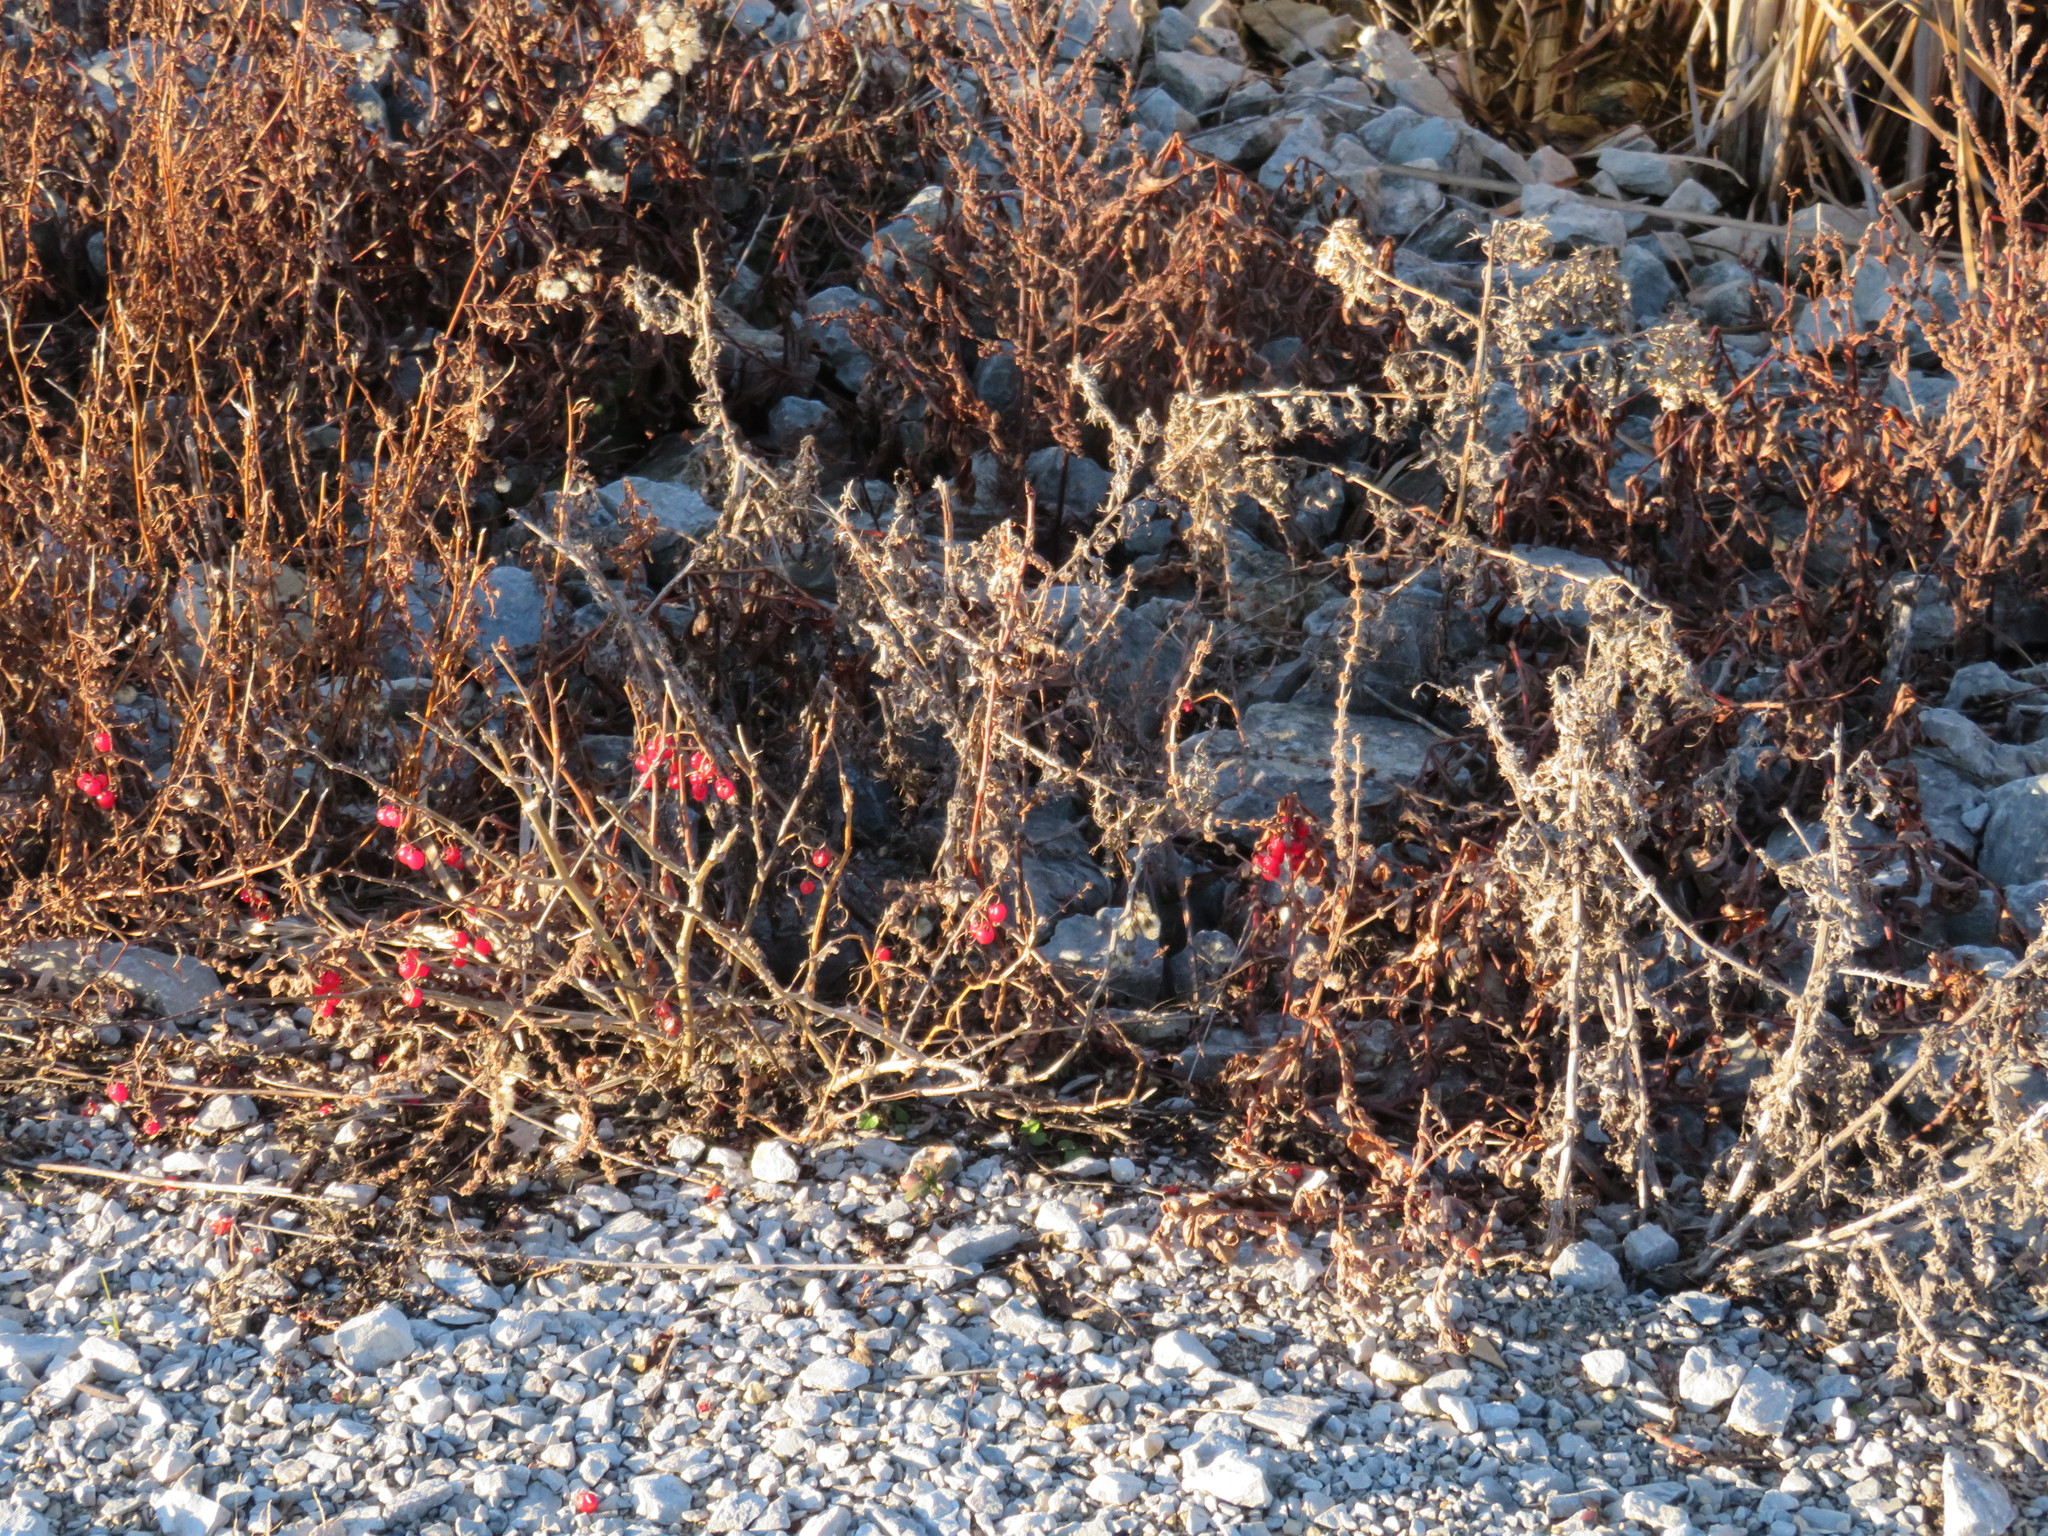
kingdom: Plantae
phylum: Tracheophyta
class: Magnoliopsida
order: Solanales
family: Solanaceae
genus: Solanum
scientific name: Solanum dulcamara
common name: Climbing nightshade
